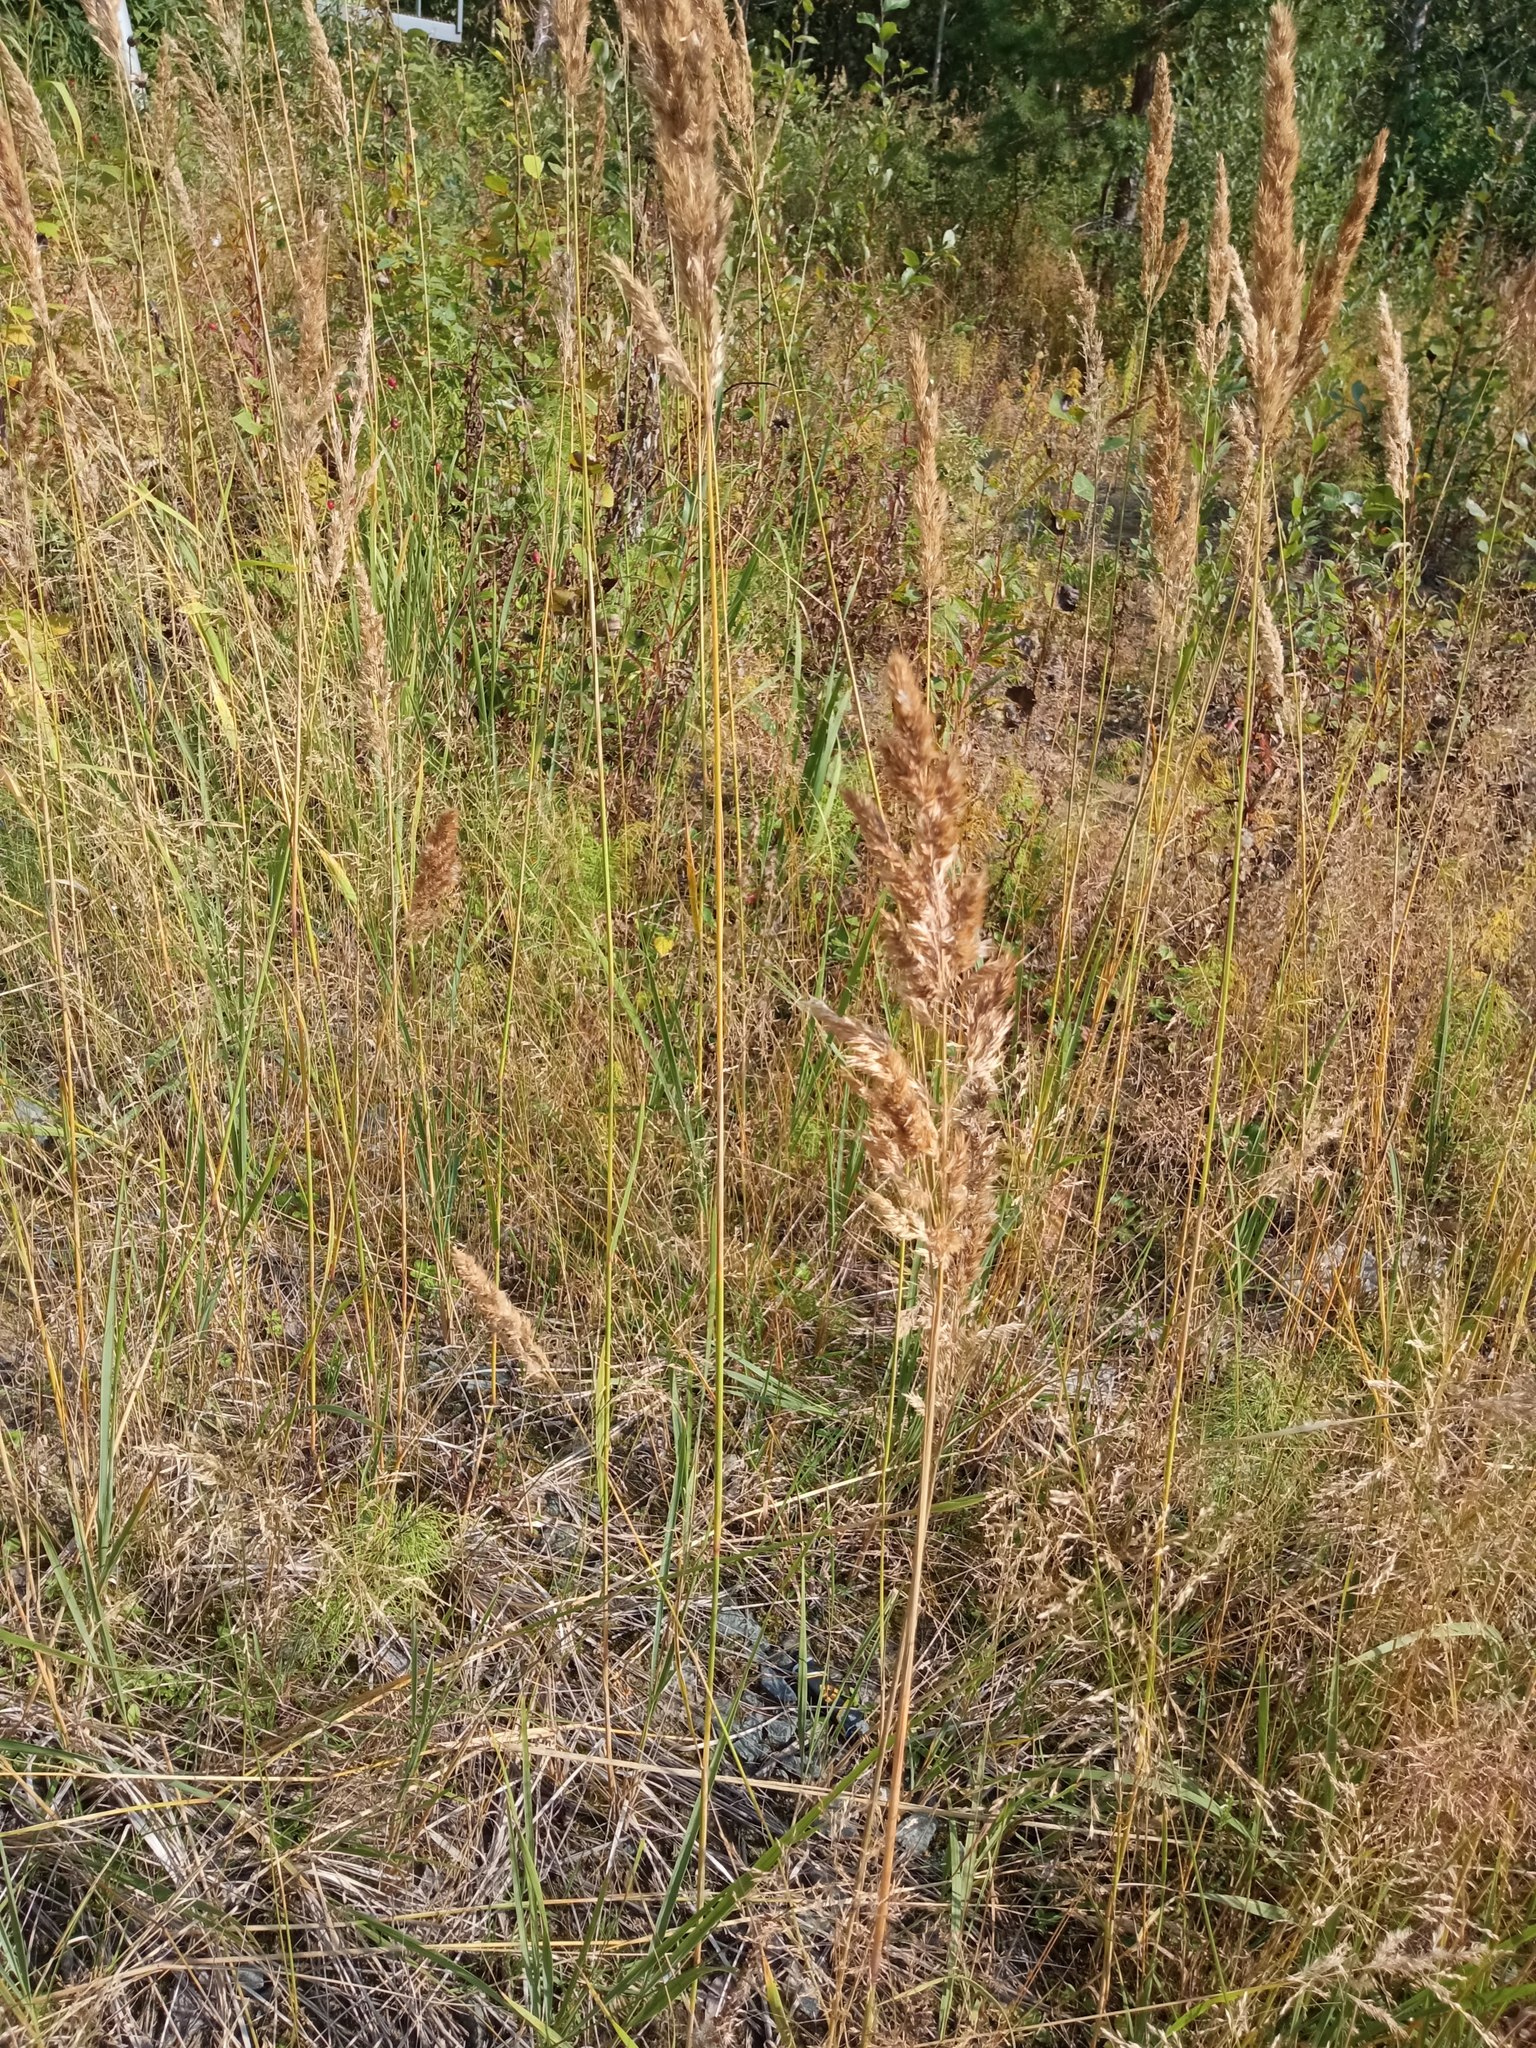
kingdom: Plantae
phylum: Tracheophyta
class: Liliopsida
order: Poales
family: Poaceae
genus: Calamagrostis
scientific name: Calamagrostis epigejos
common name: Wood small-reed
